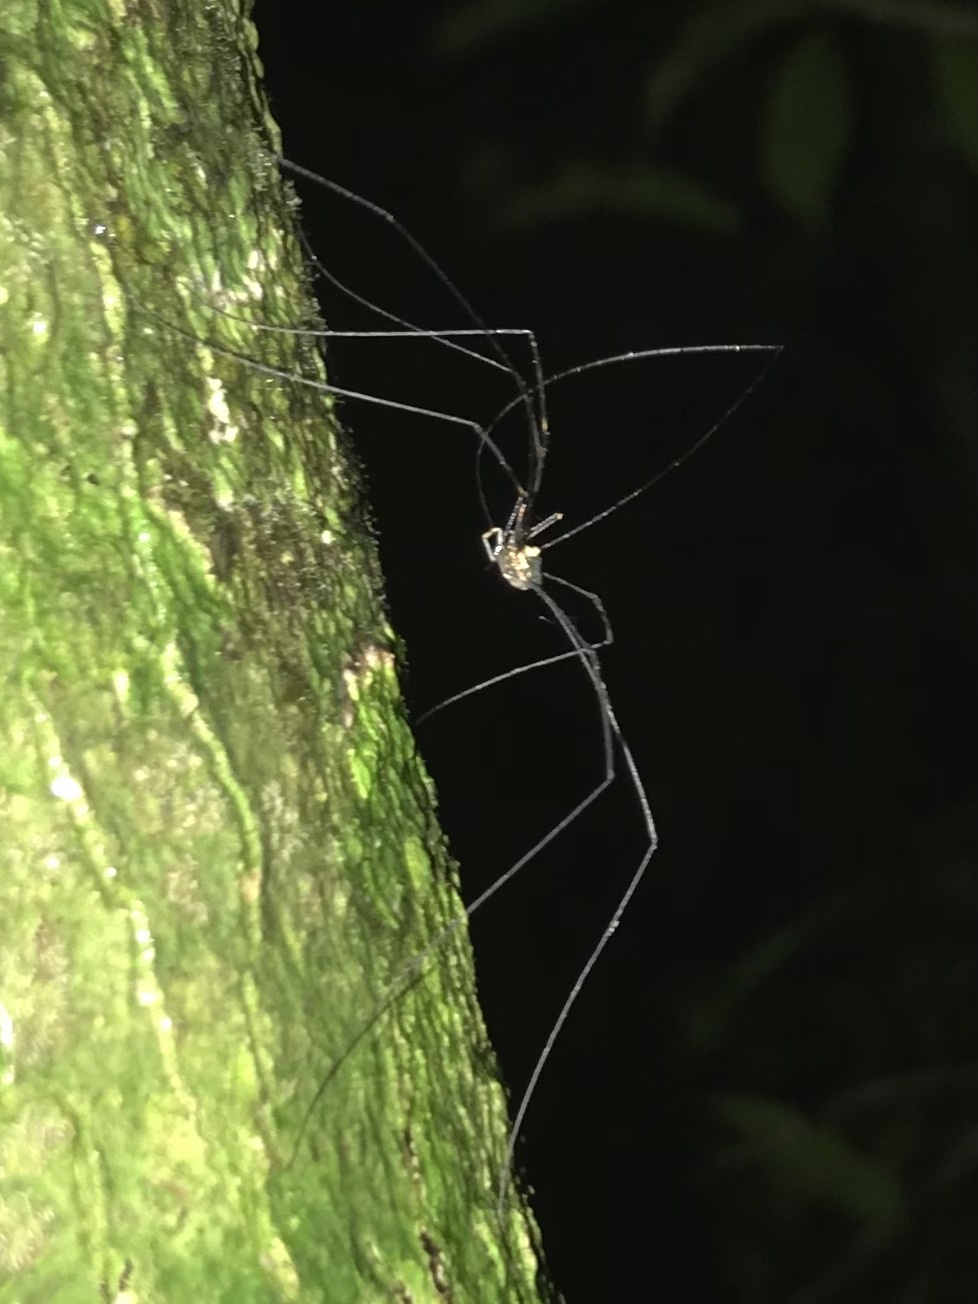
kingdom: Animalia
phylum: Arthropoda
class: Arachnida
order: Opiliones
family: Neopilionidae
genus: Neopantopsalis
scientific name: Neopantopsalis pentheter
